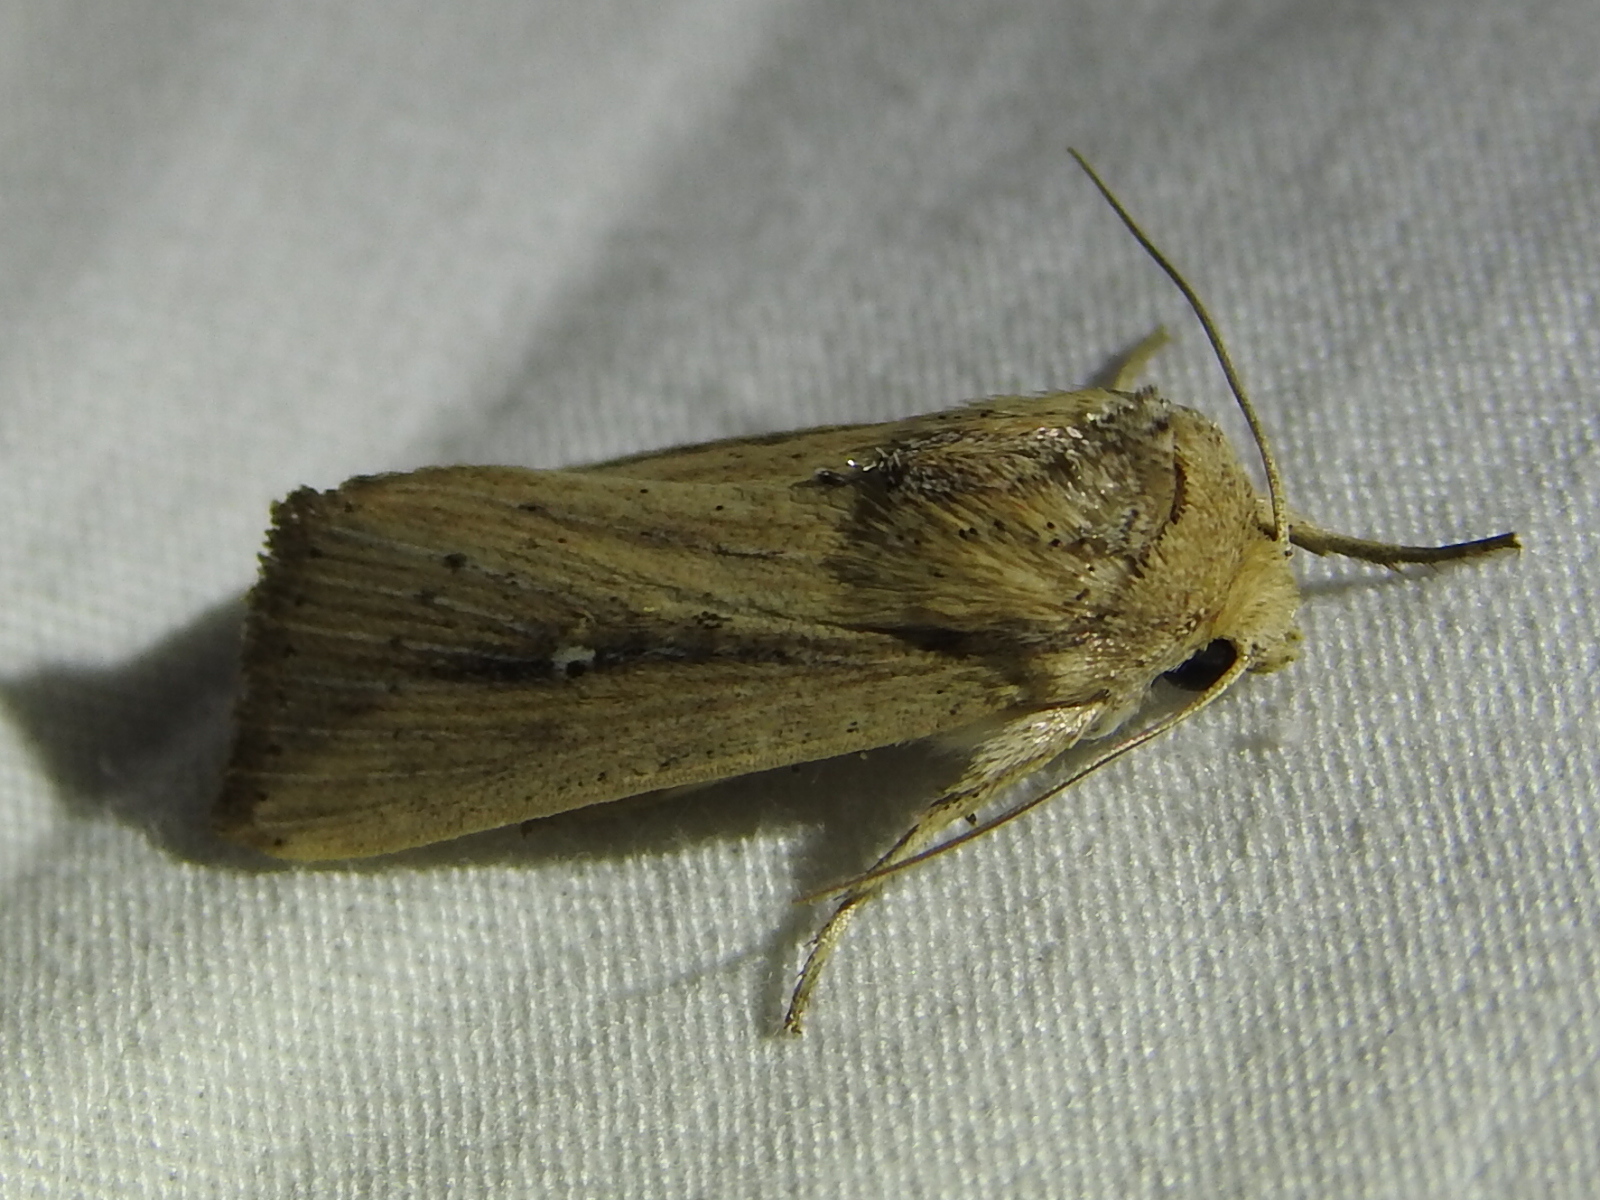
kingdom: Animalia
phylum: Arthropoda
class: Insecta
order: Lepidoptera
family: Noctuidae
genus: Leucania
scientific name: Leucania incognita
